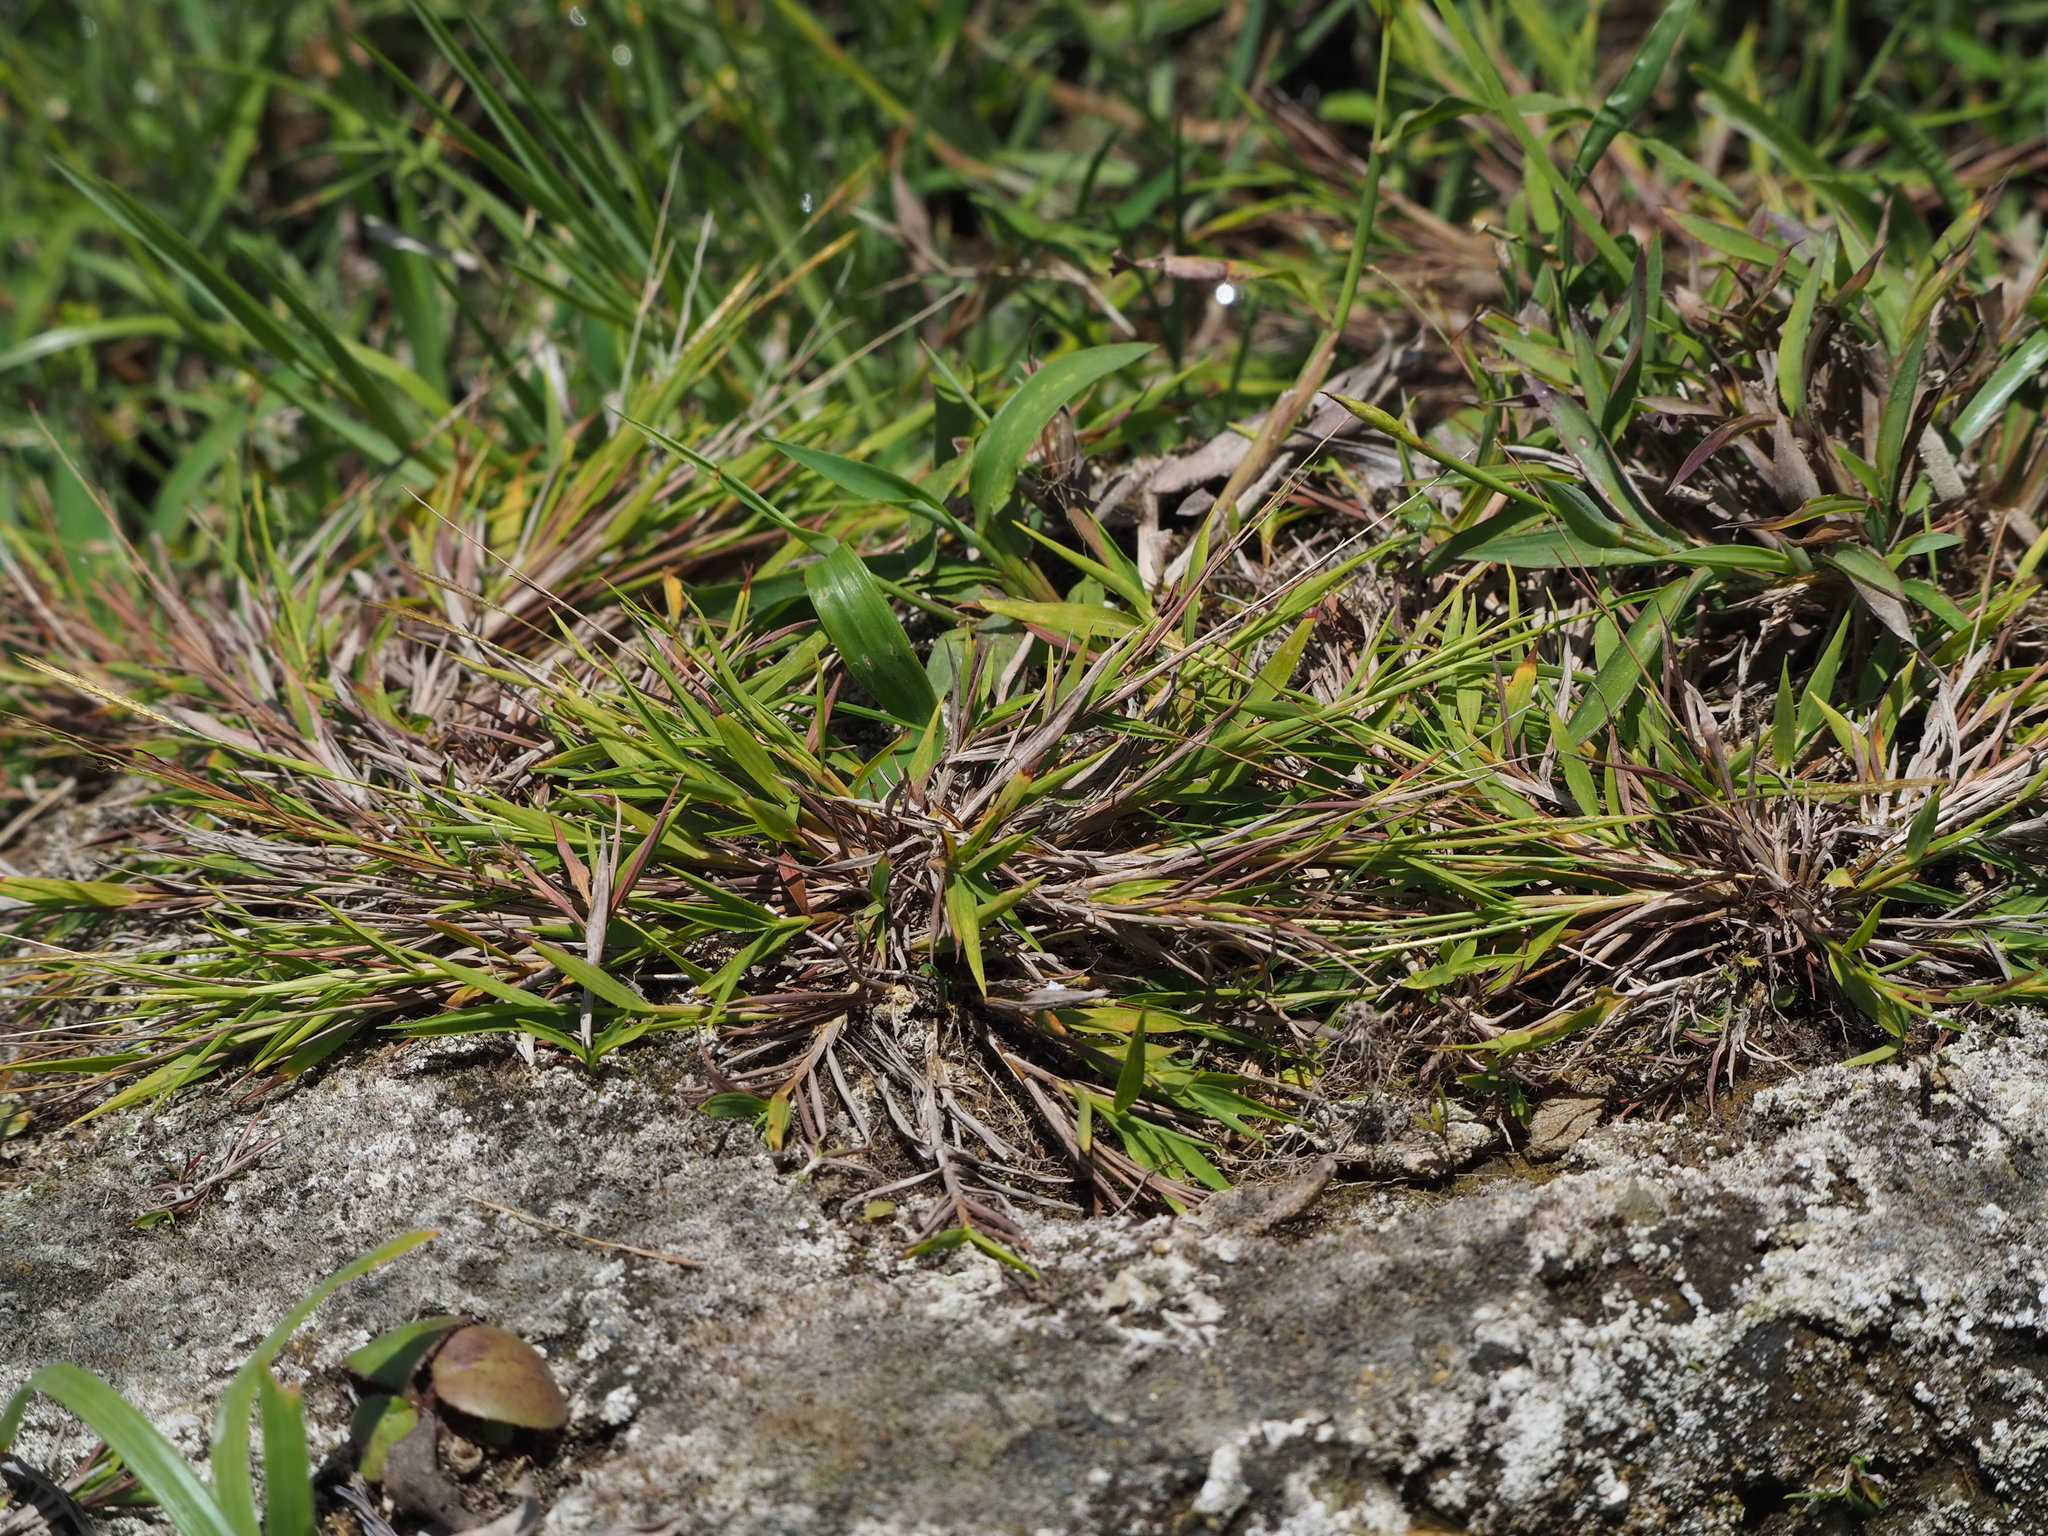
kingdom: Plantae
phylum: Tracheophyta
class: Liliopsida
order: Poales
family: Poaceae
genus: Pogonatherum
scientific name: Pogonatherum crinitum
